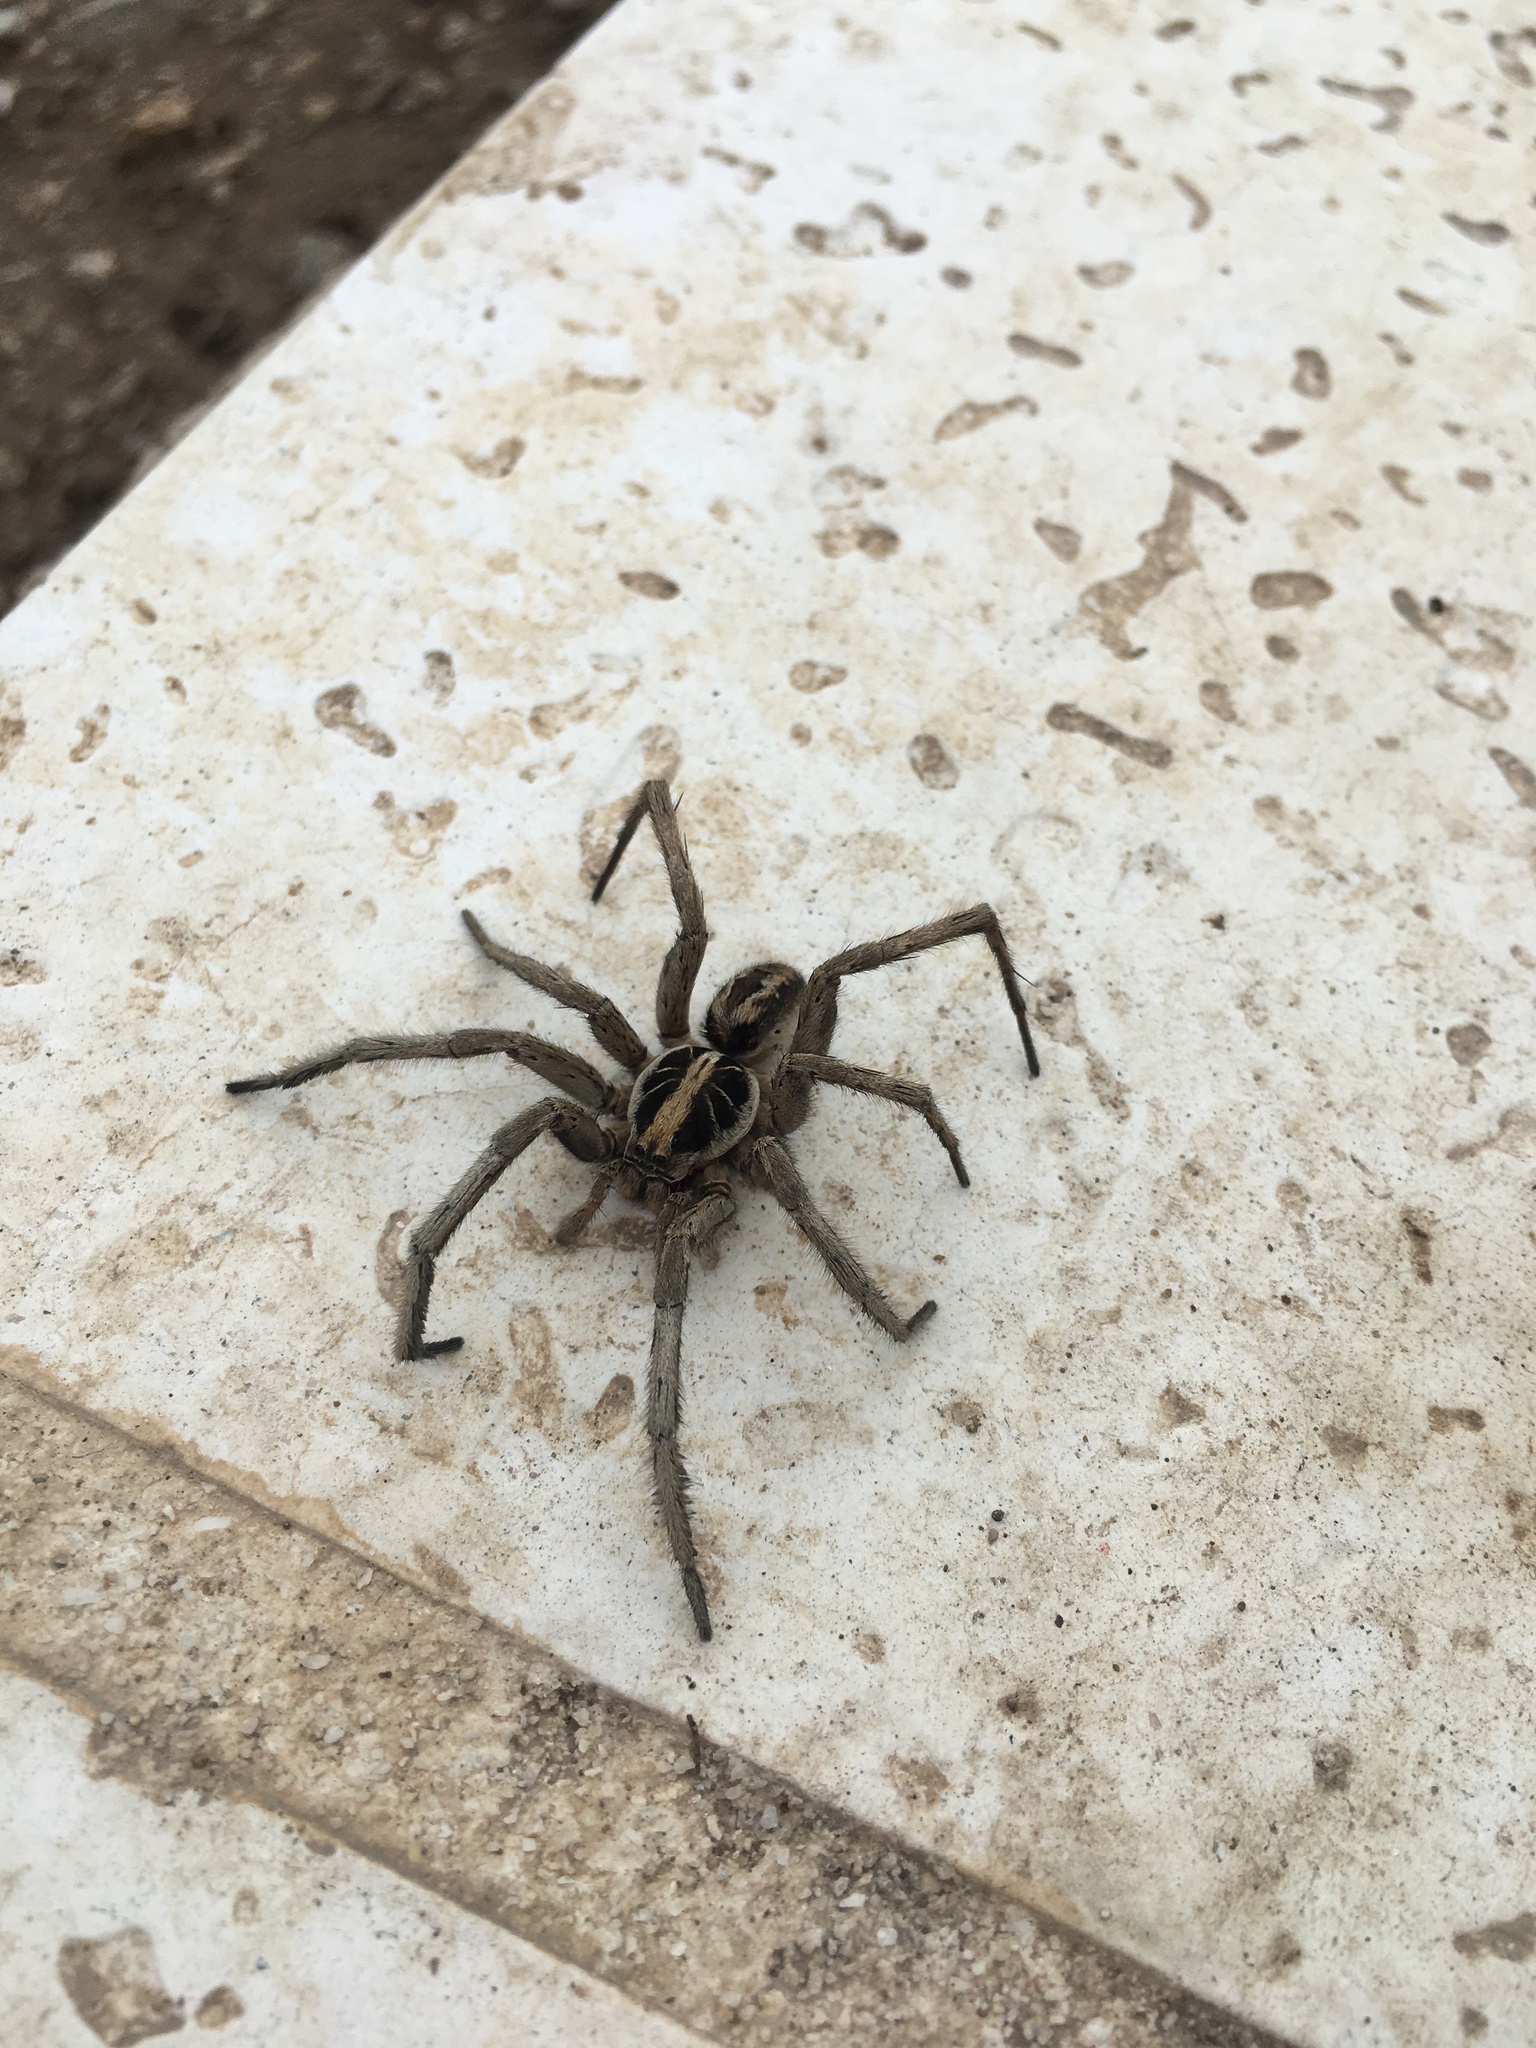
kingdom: Animalia
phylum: Arthropoda
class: Arachnida
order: Araneae
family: Lycosidae
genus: Schizocosa
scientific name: Schizocosa malitiosa
